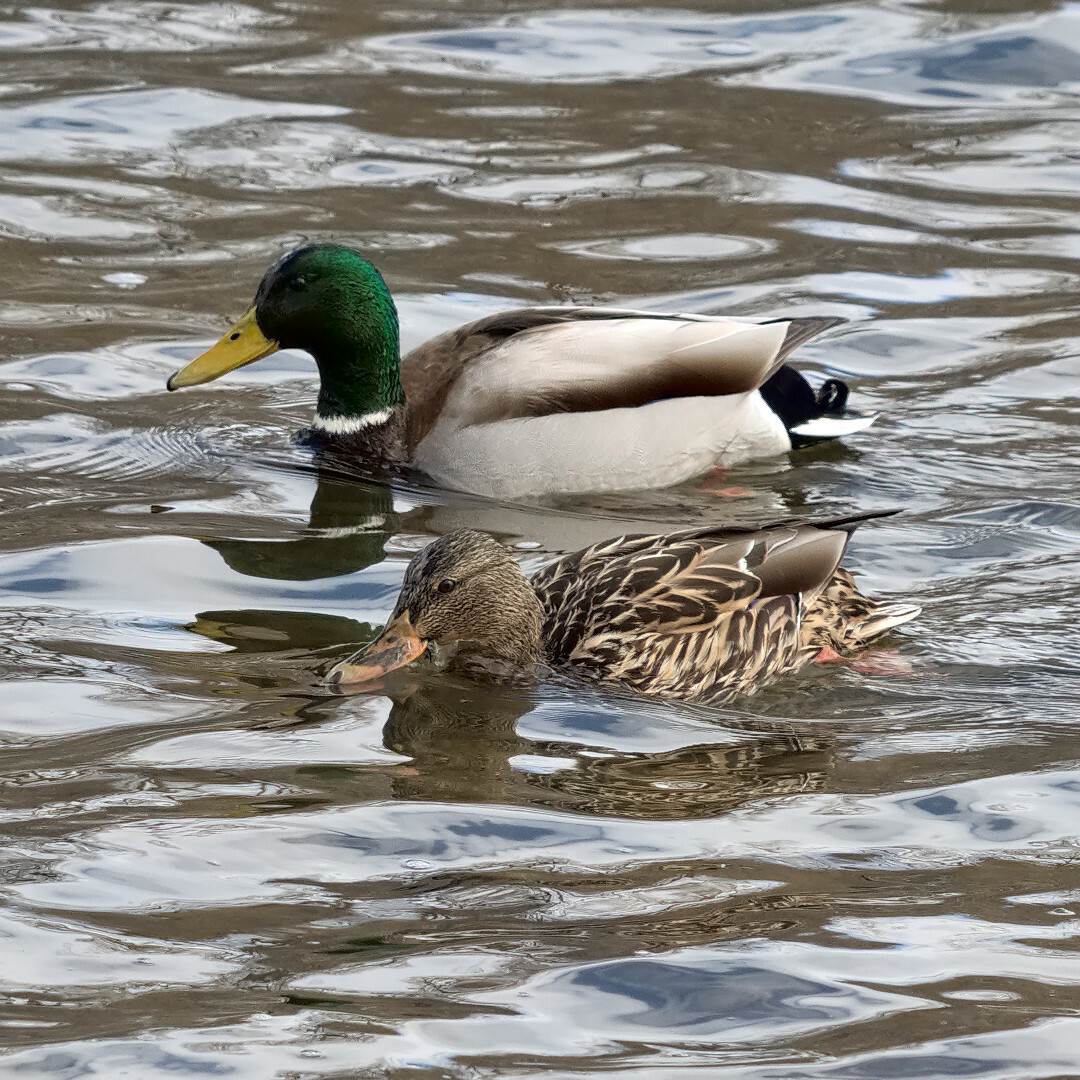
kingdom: Animalia
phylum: Chordata
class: Aves
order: Anseriformes
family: Anatidae
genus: Anas
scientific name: Anas platyrhynchos
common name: Mallard
